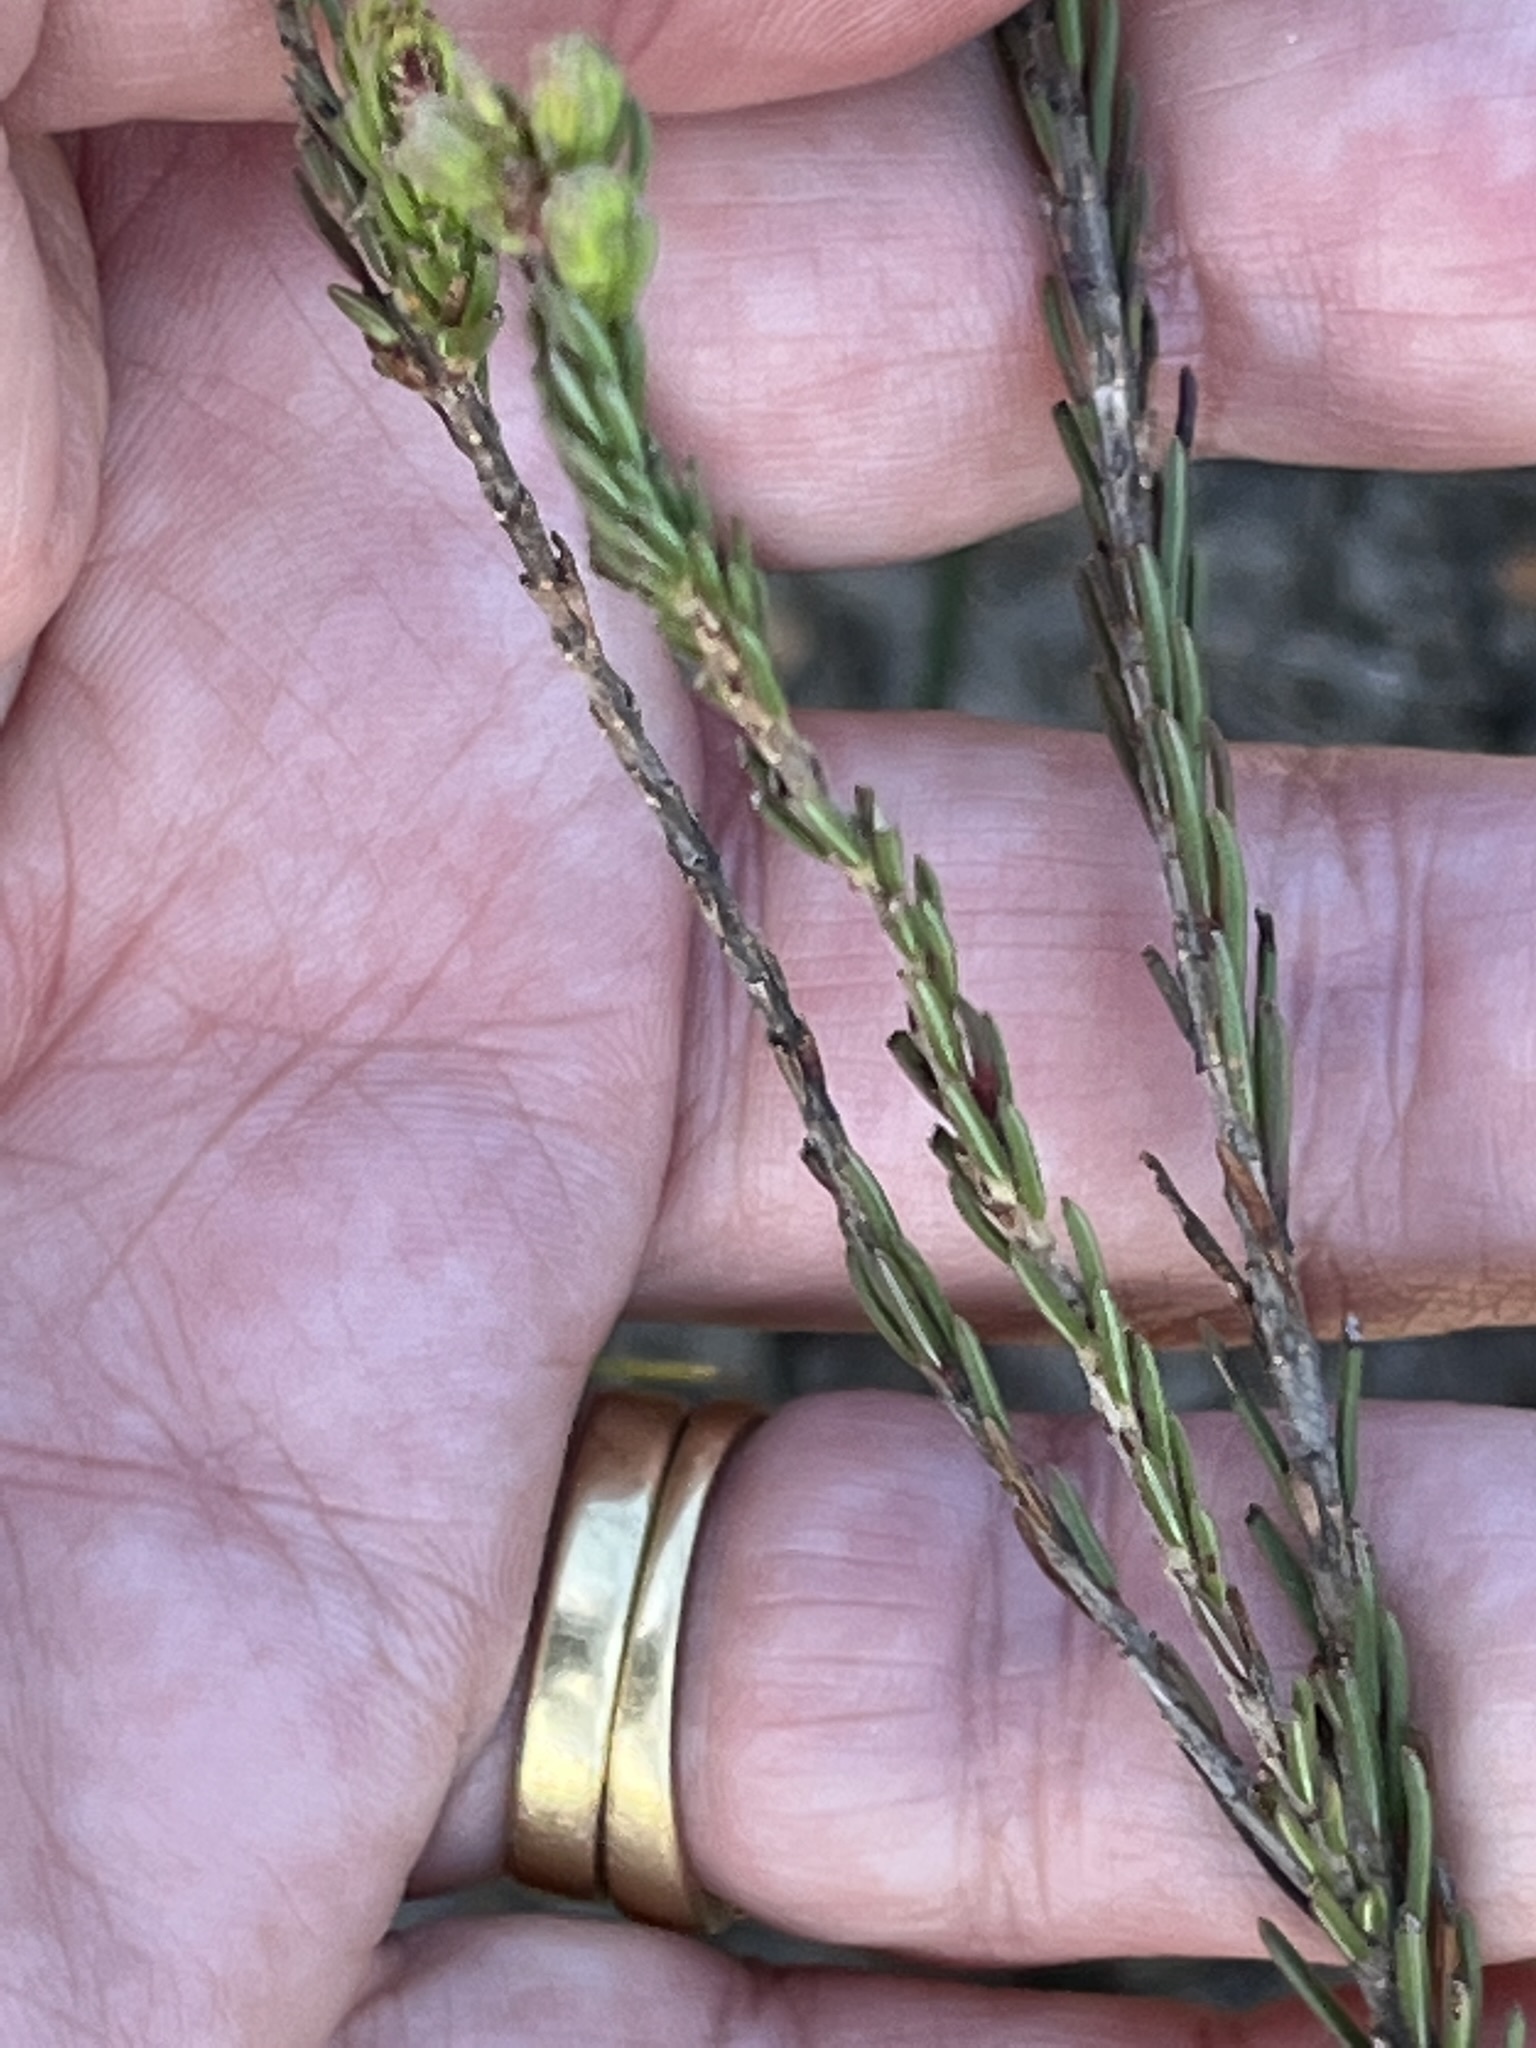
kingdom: Plantae
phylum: Tracheophyta
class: Magnoliopsida
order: Ericales
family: Ericaceae
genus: Erica
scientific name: Erica axilliflora
